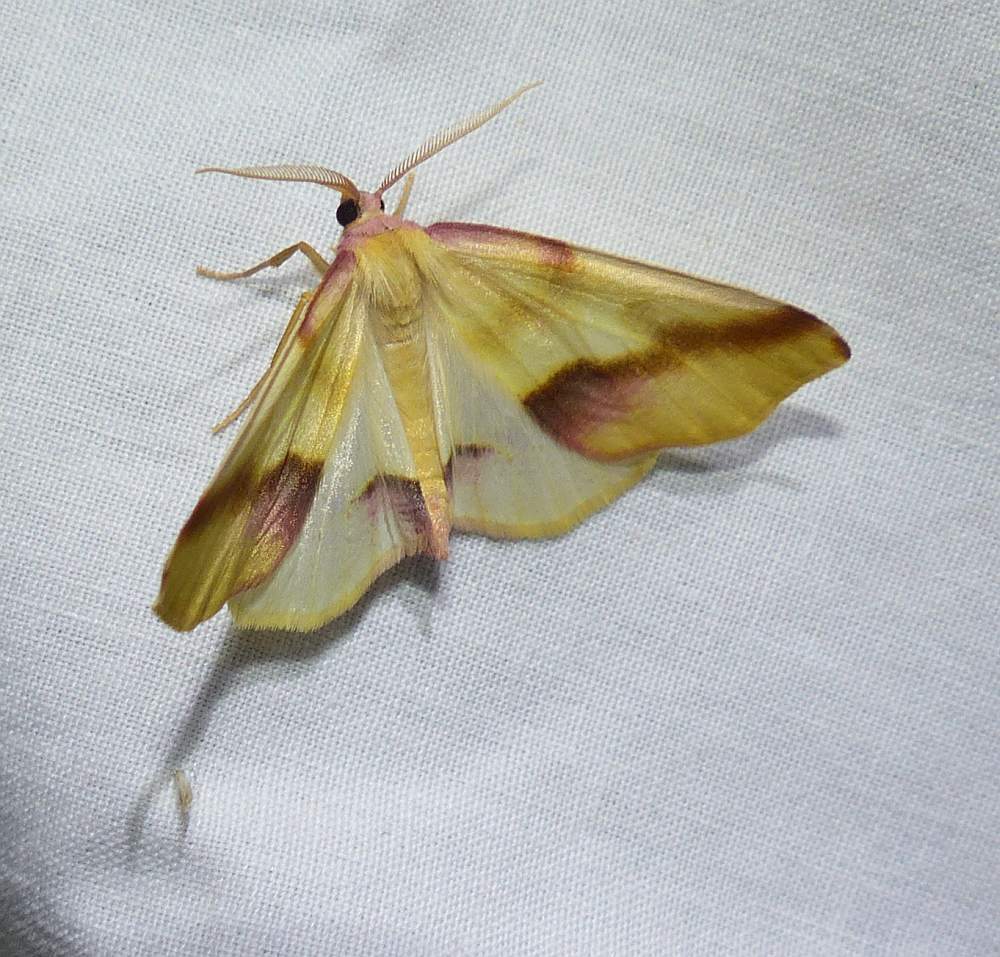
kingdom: Animalia
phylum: Arthropoda
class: Insecta
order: Lepidoptera
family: Geometridae
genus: Plagodis
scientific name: Plagodis serinaria
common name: Lemon plagodis
